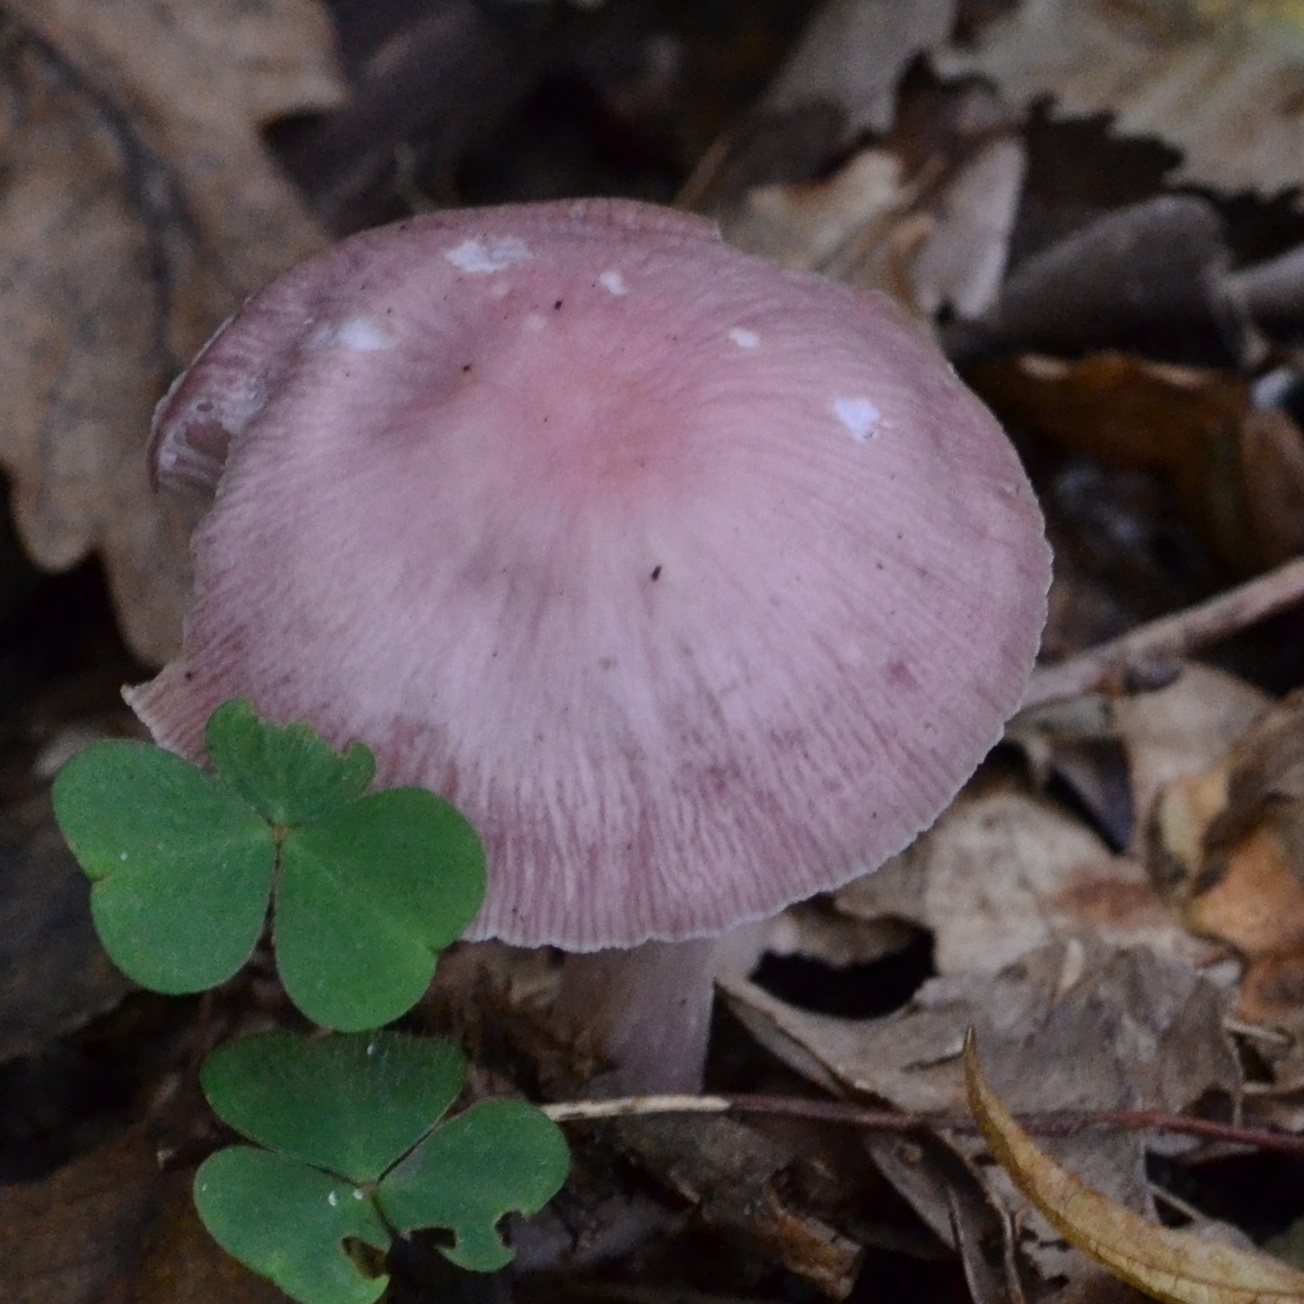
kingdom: Fungi
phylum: Basidiomycota
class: Agaricomycetes
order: Agaricales
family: Mycenaceae
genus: Mycena
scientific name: Mycena rosea
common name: Rosy bonnet
